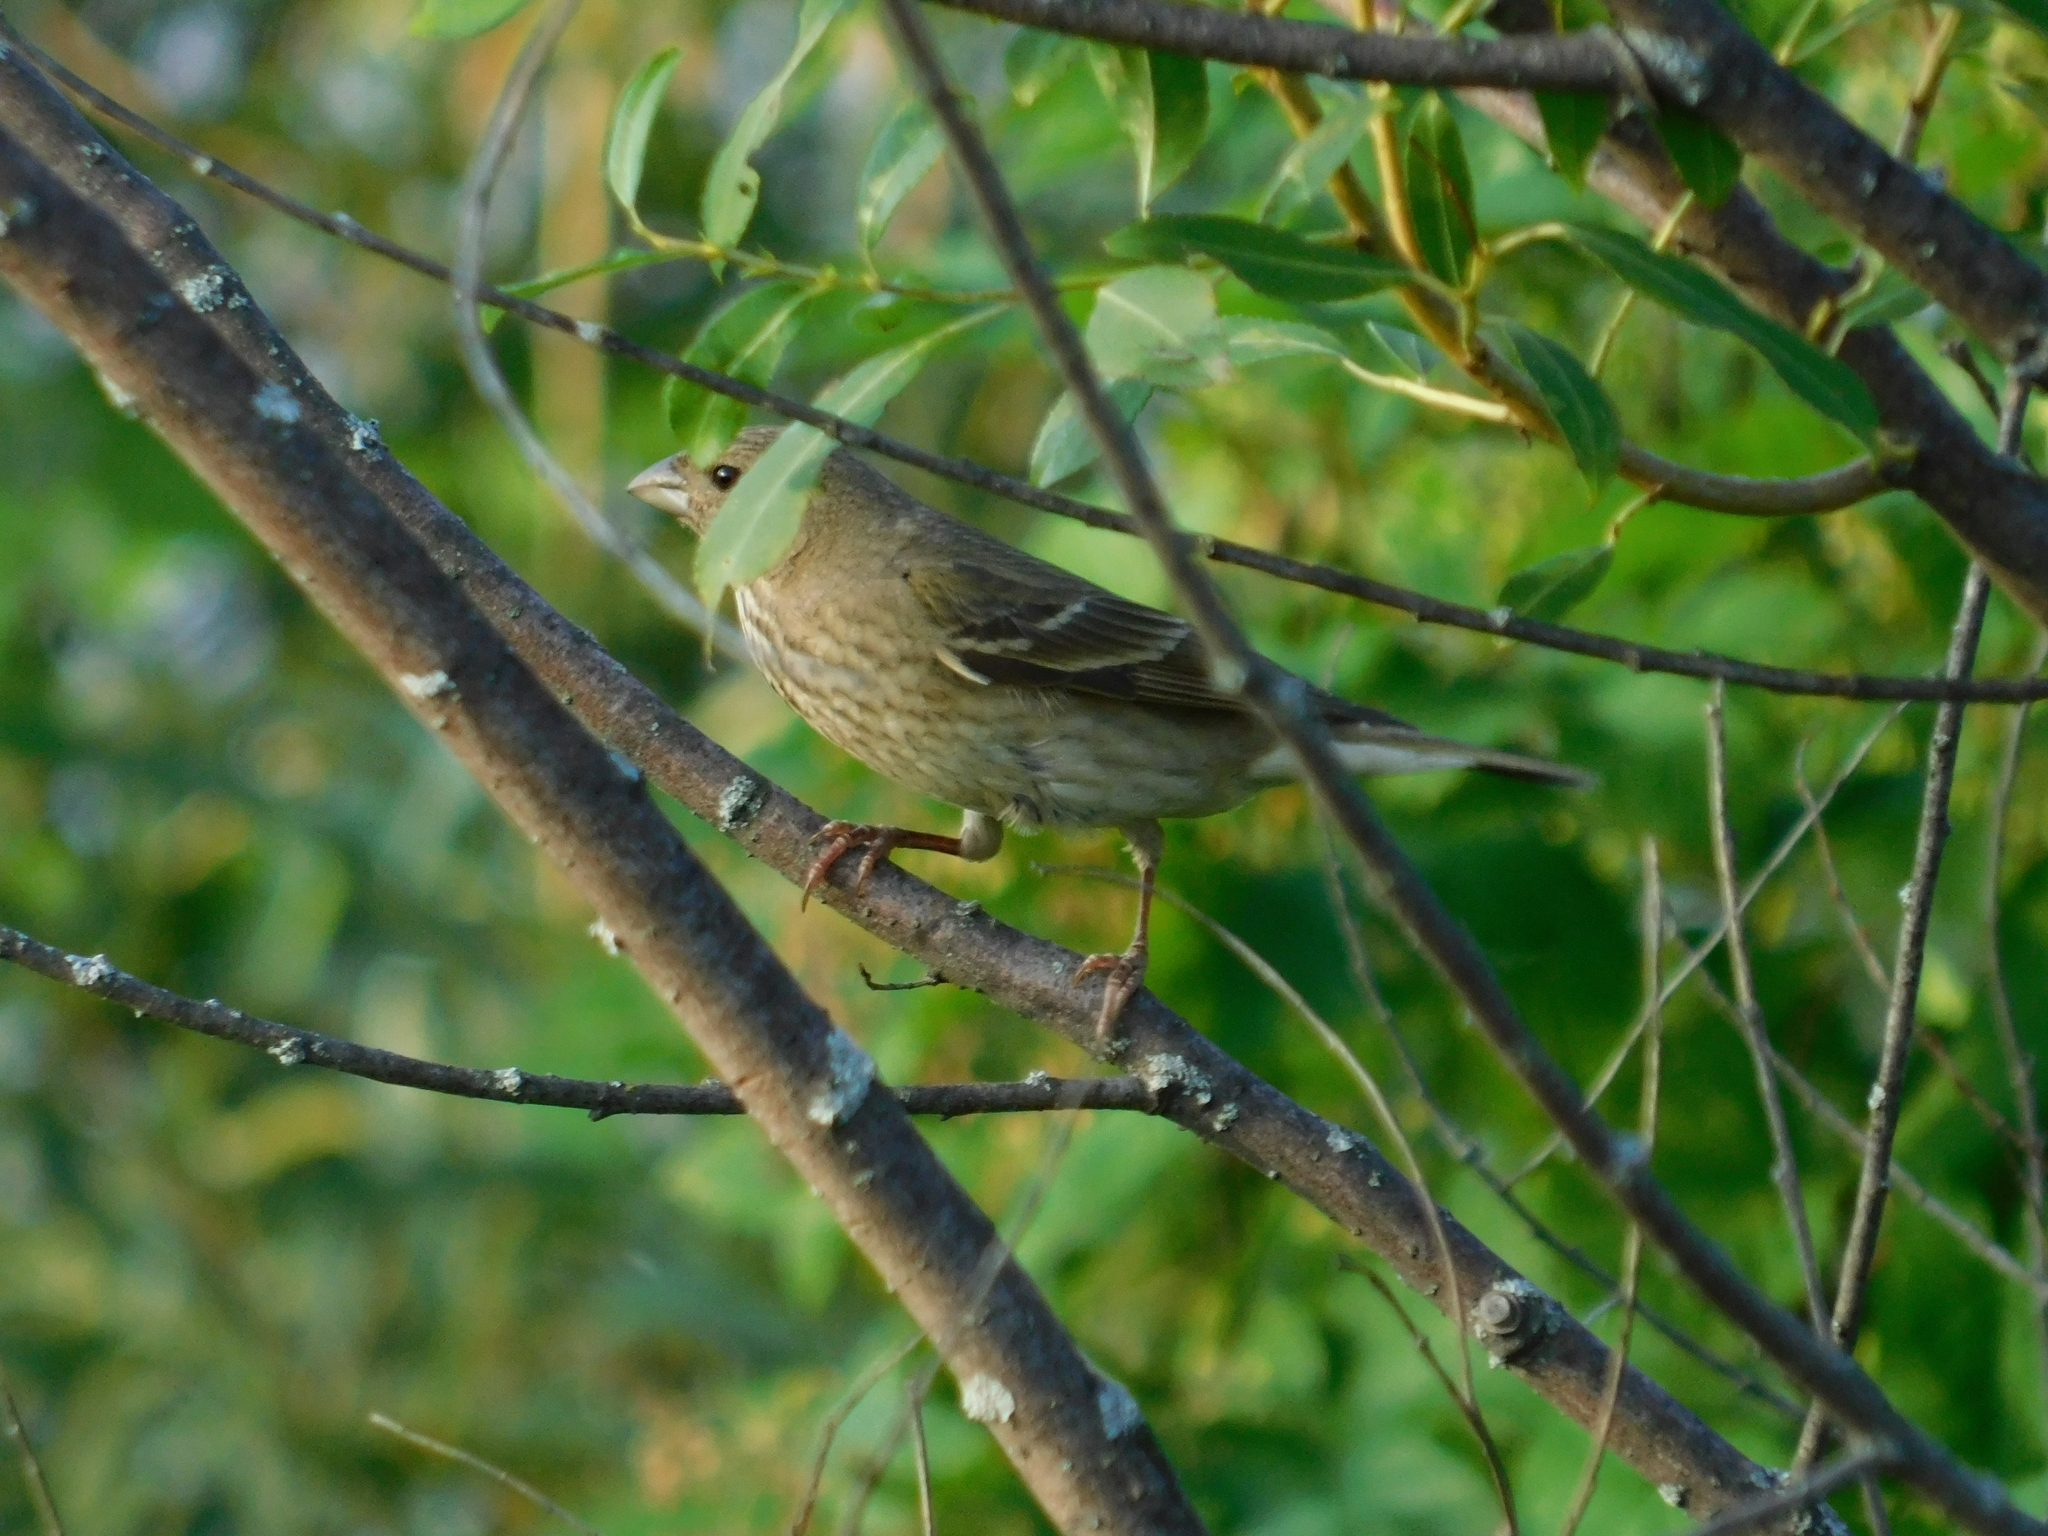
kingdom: Animalia
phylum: Chordata
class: Aves
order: Passeriformes
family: Fringillidae
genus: Carpodacus
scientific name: Carpodacus erythrinus
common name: Common rosefinch
